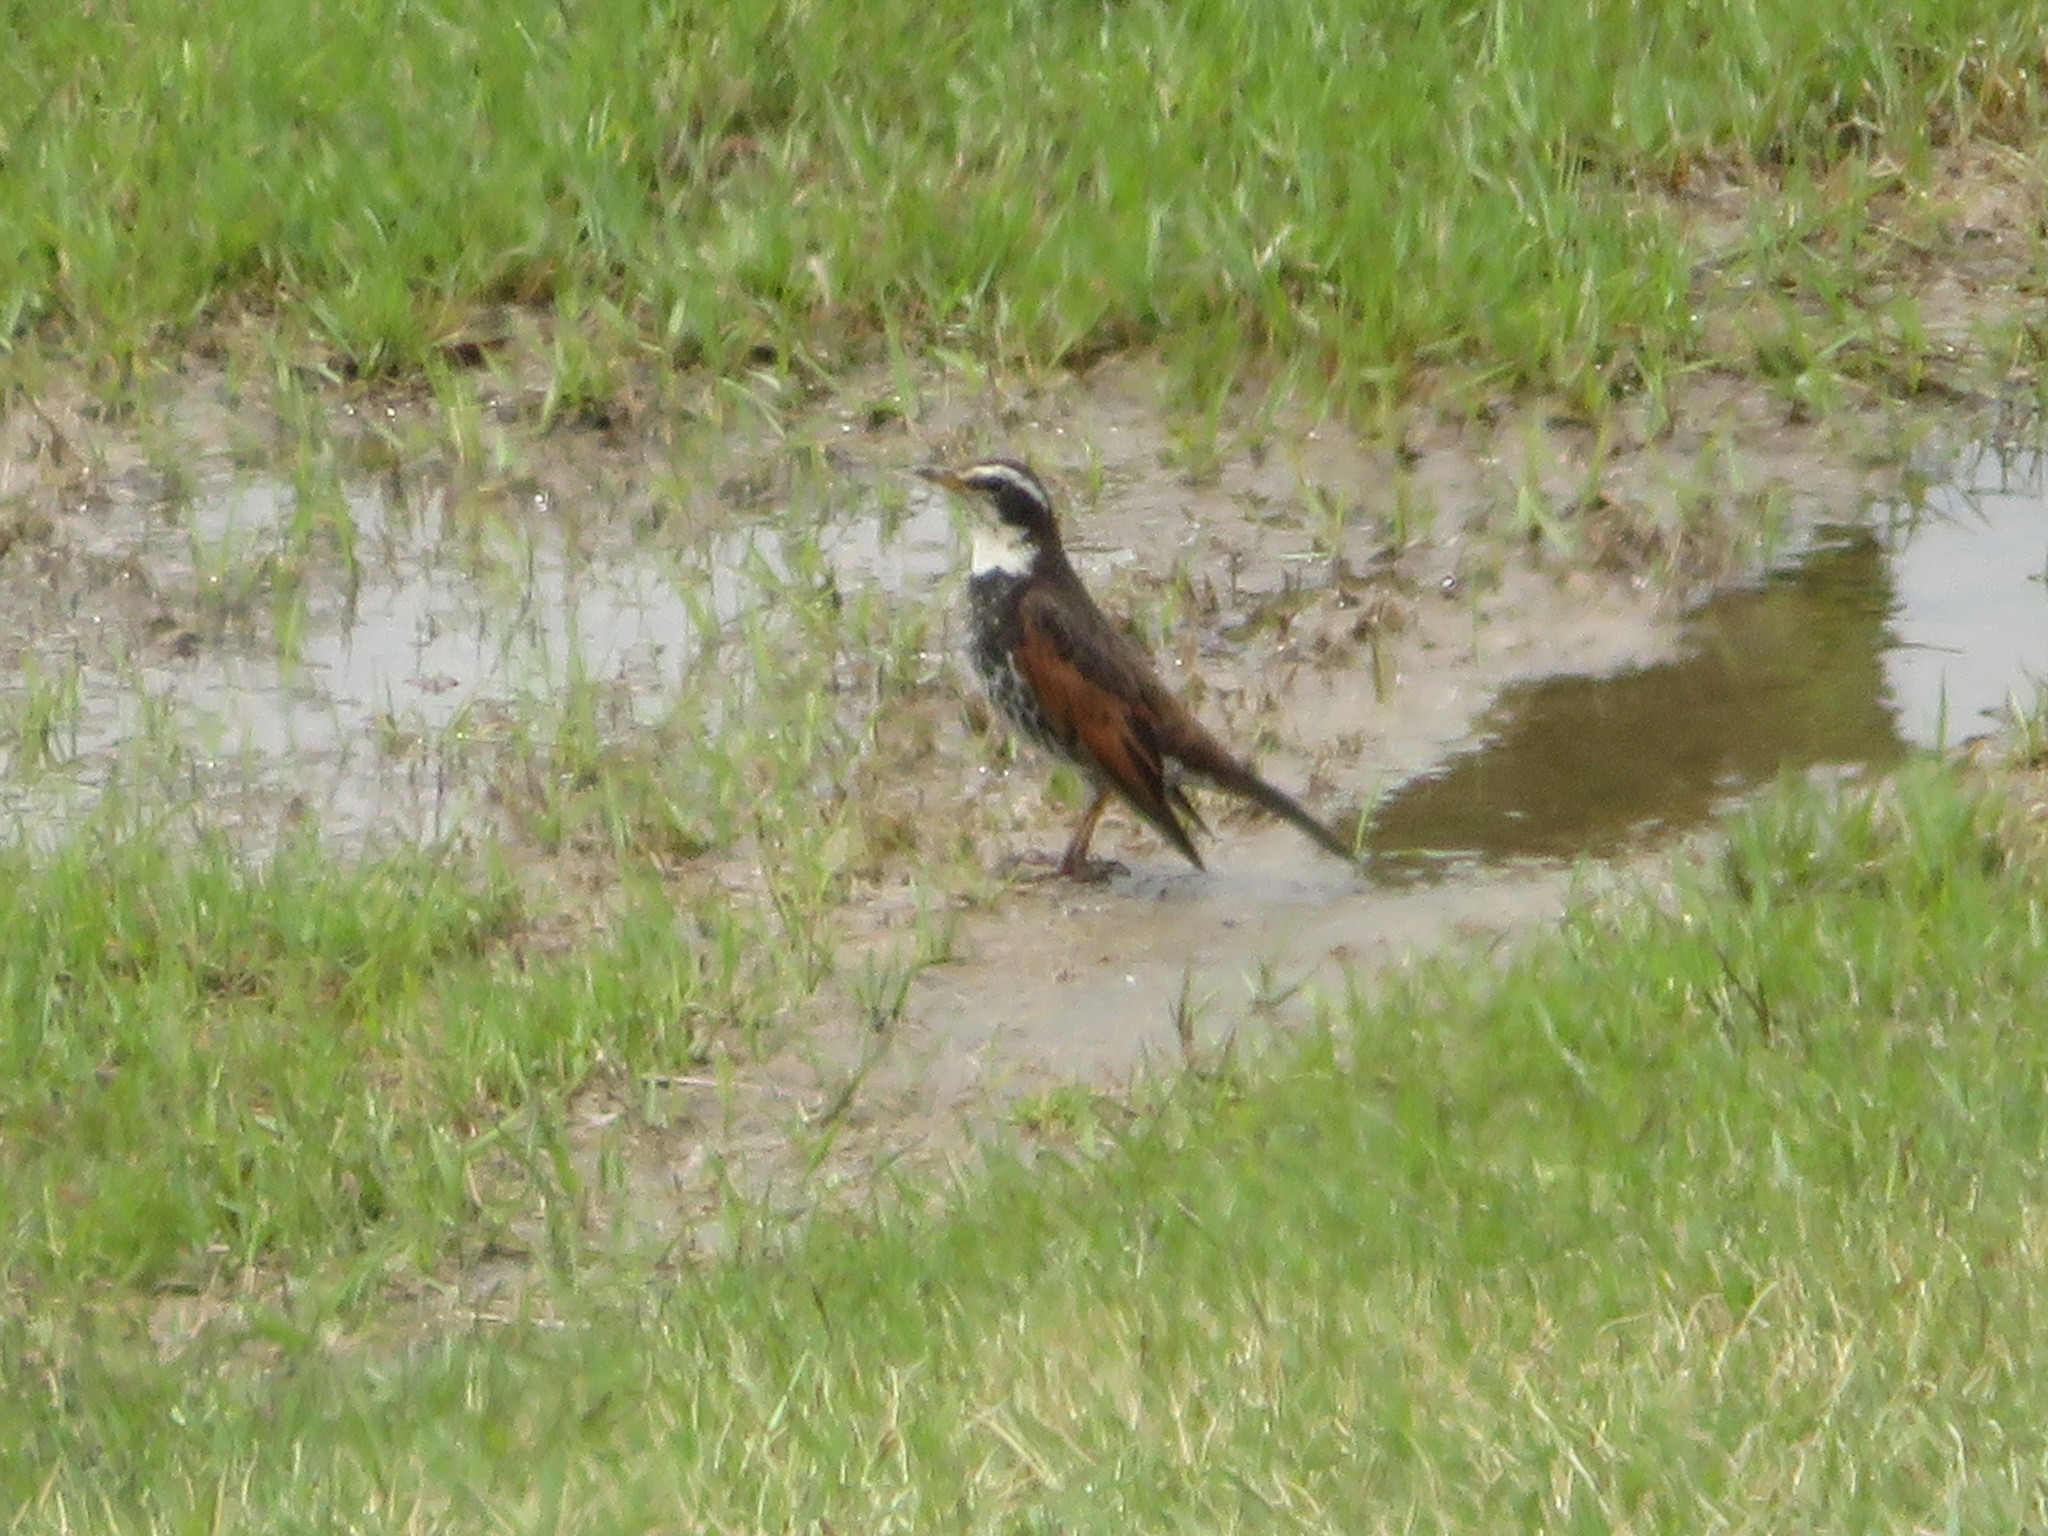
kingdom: Animalia
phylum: Chordata
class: Aves
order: Passeriformes
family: Turdidae
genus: Turdus
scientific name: Turdus eunomus
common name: Dusky thrush
